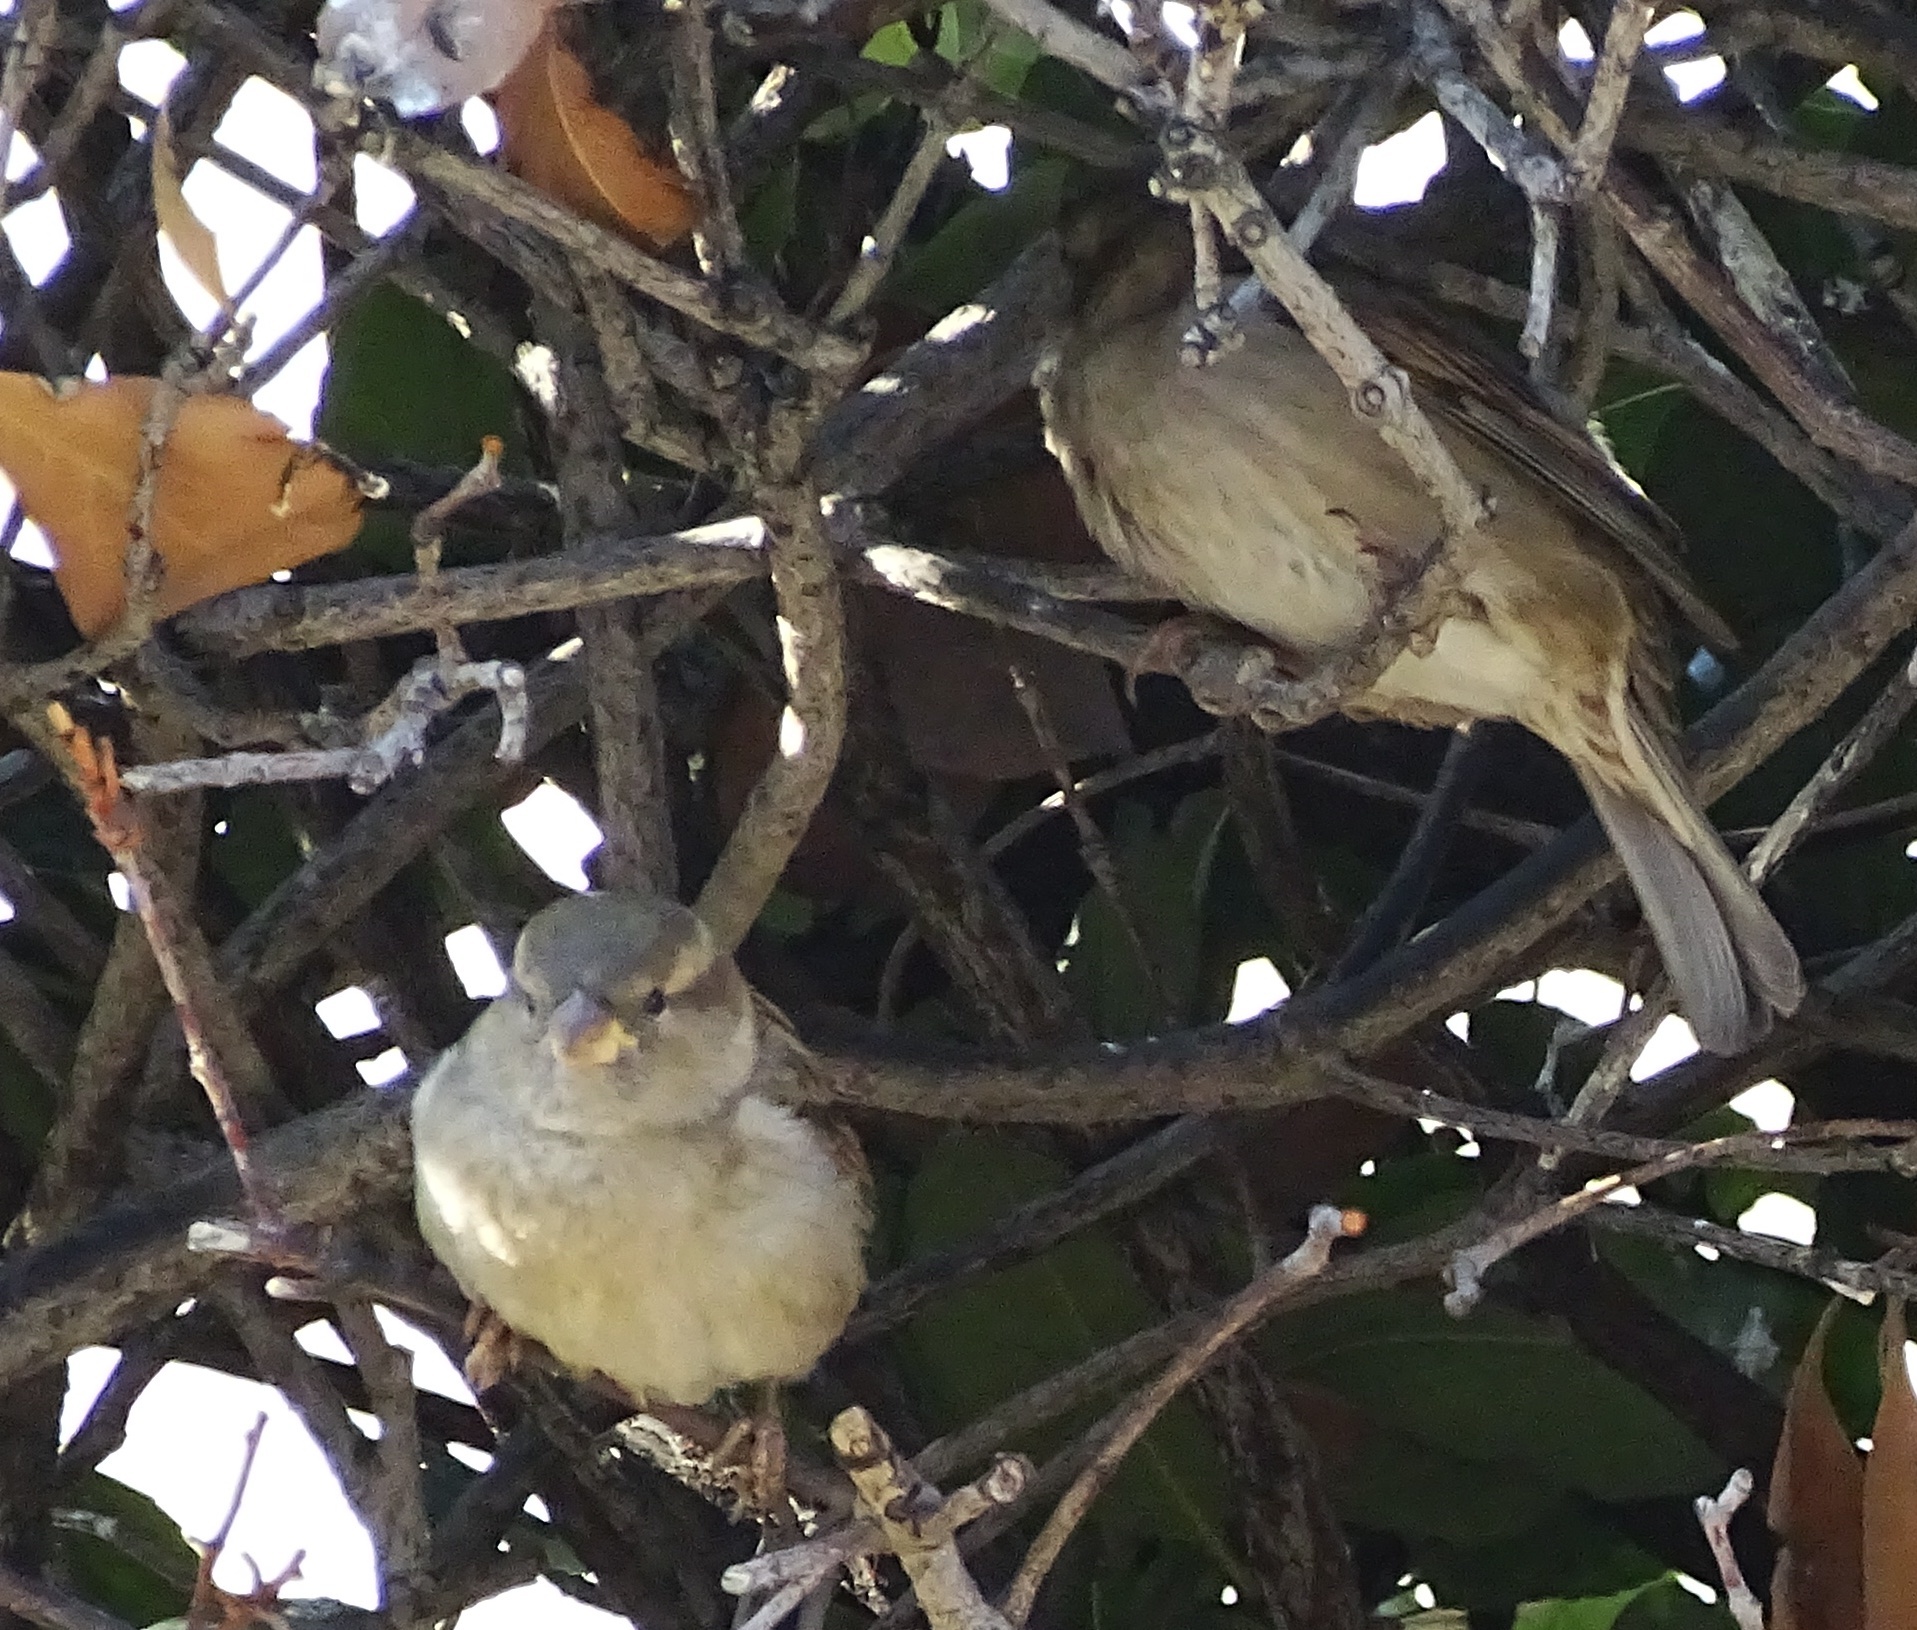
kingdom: Animalia
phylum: Chordata
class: Aves
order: Passeriformes
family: Passeridae
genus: Passer
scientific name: Passer domesticus
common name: House sparrow
